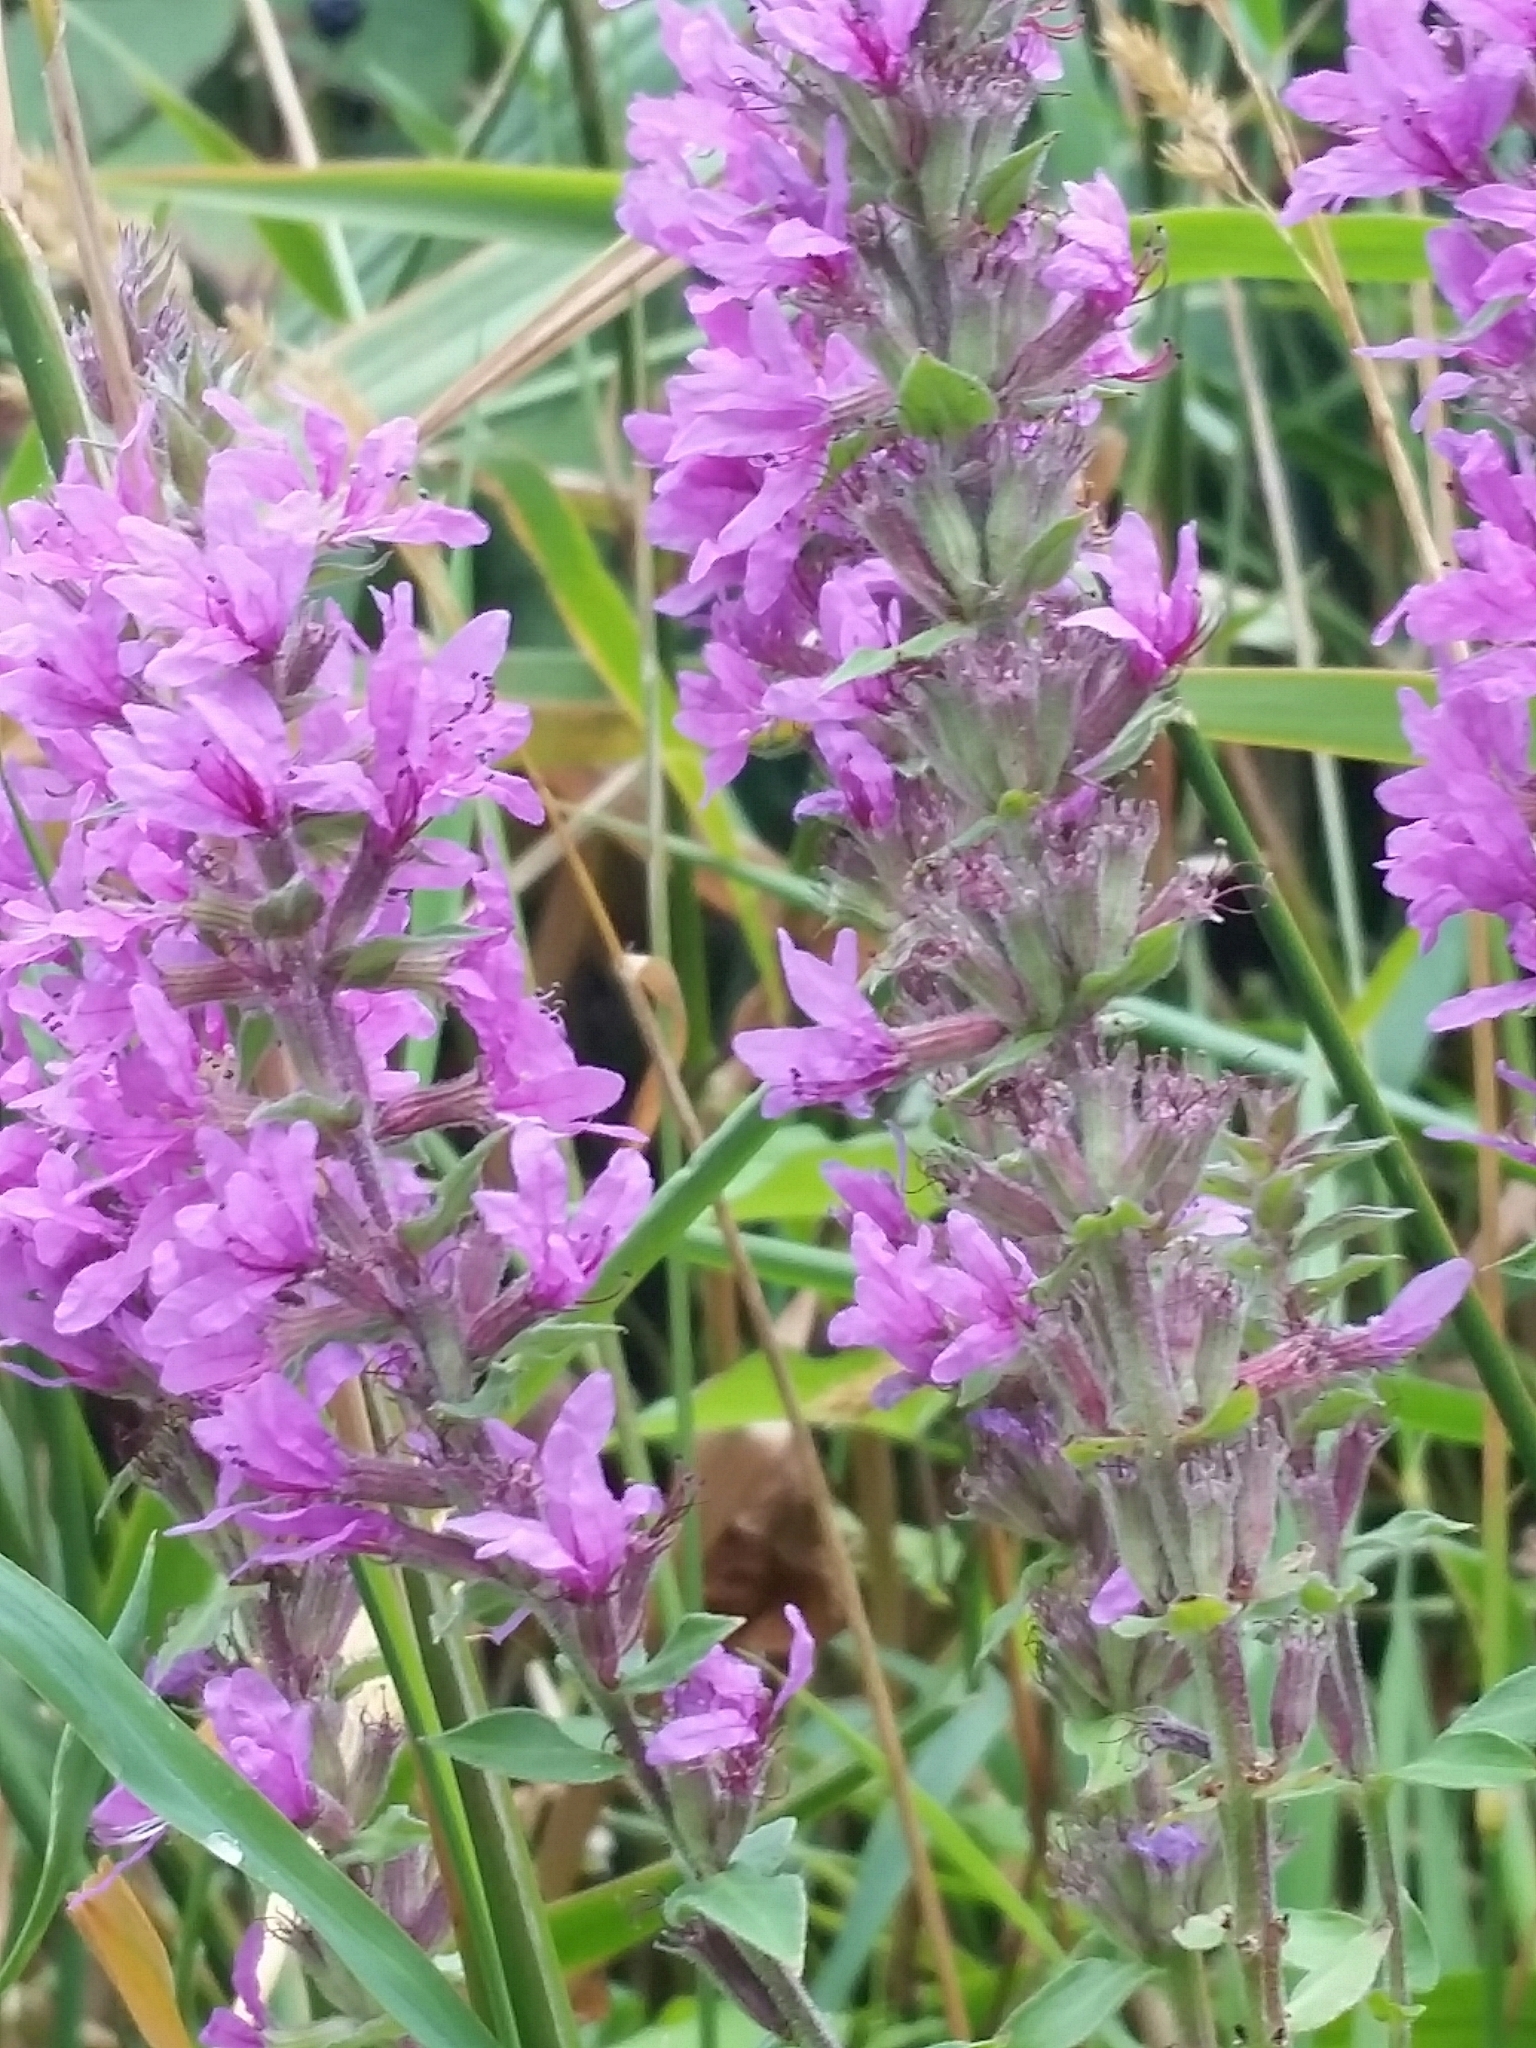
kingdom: Plantae
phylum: Tracheophyta
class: Magnoliopsida
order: Myrtales
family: Lythraceae
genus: Lythrum
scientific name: Lythrum salicaria
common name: Purple loosestrife
